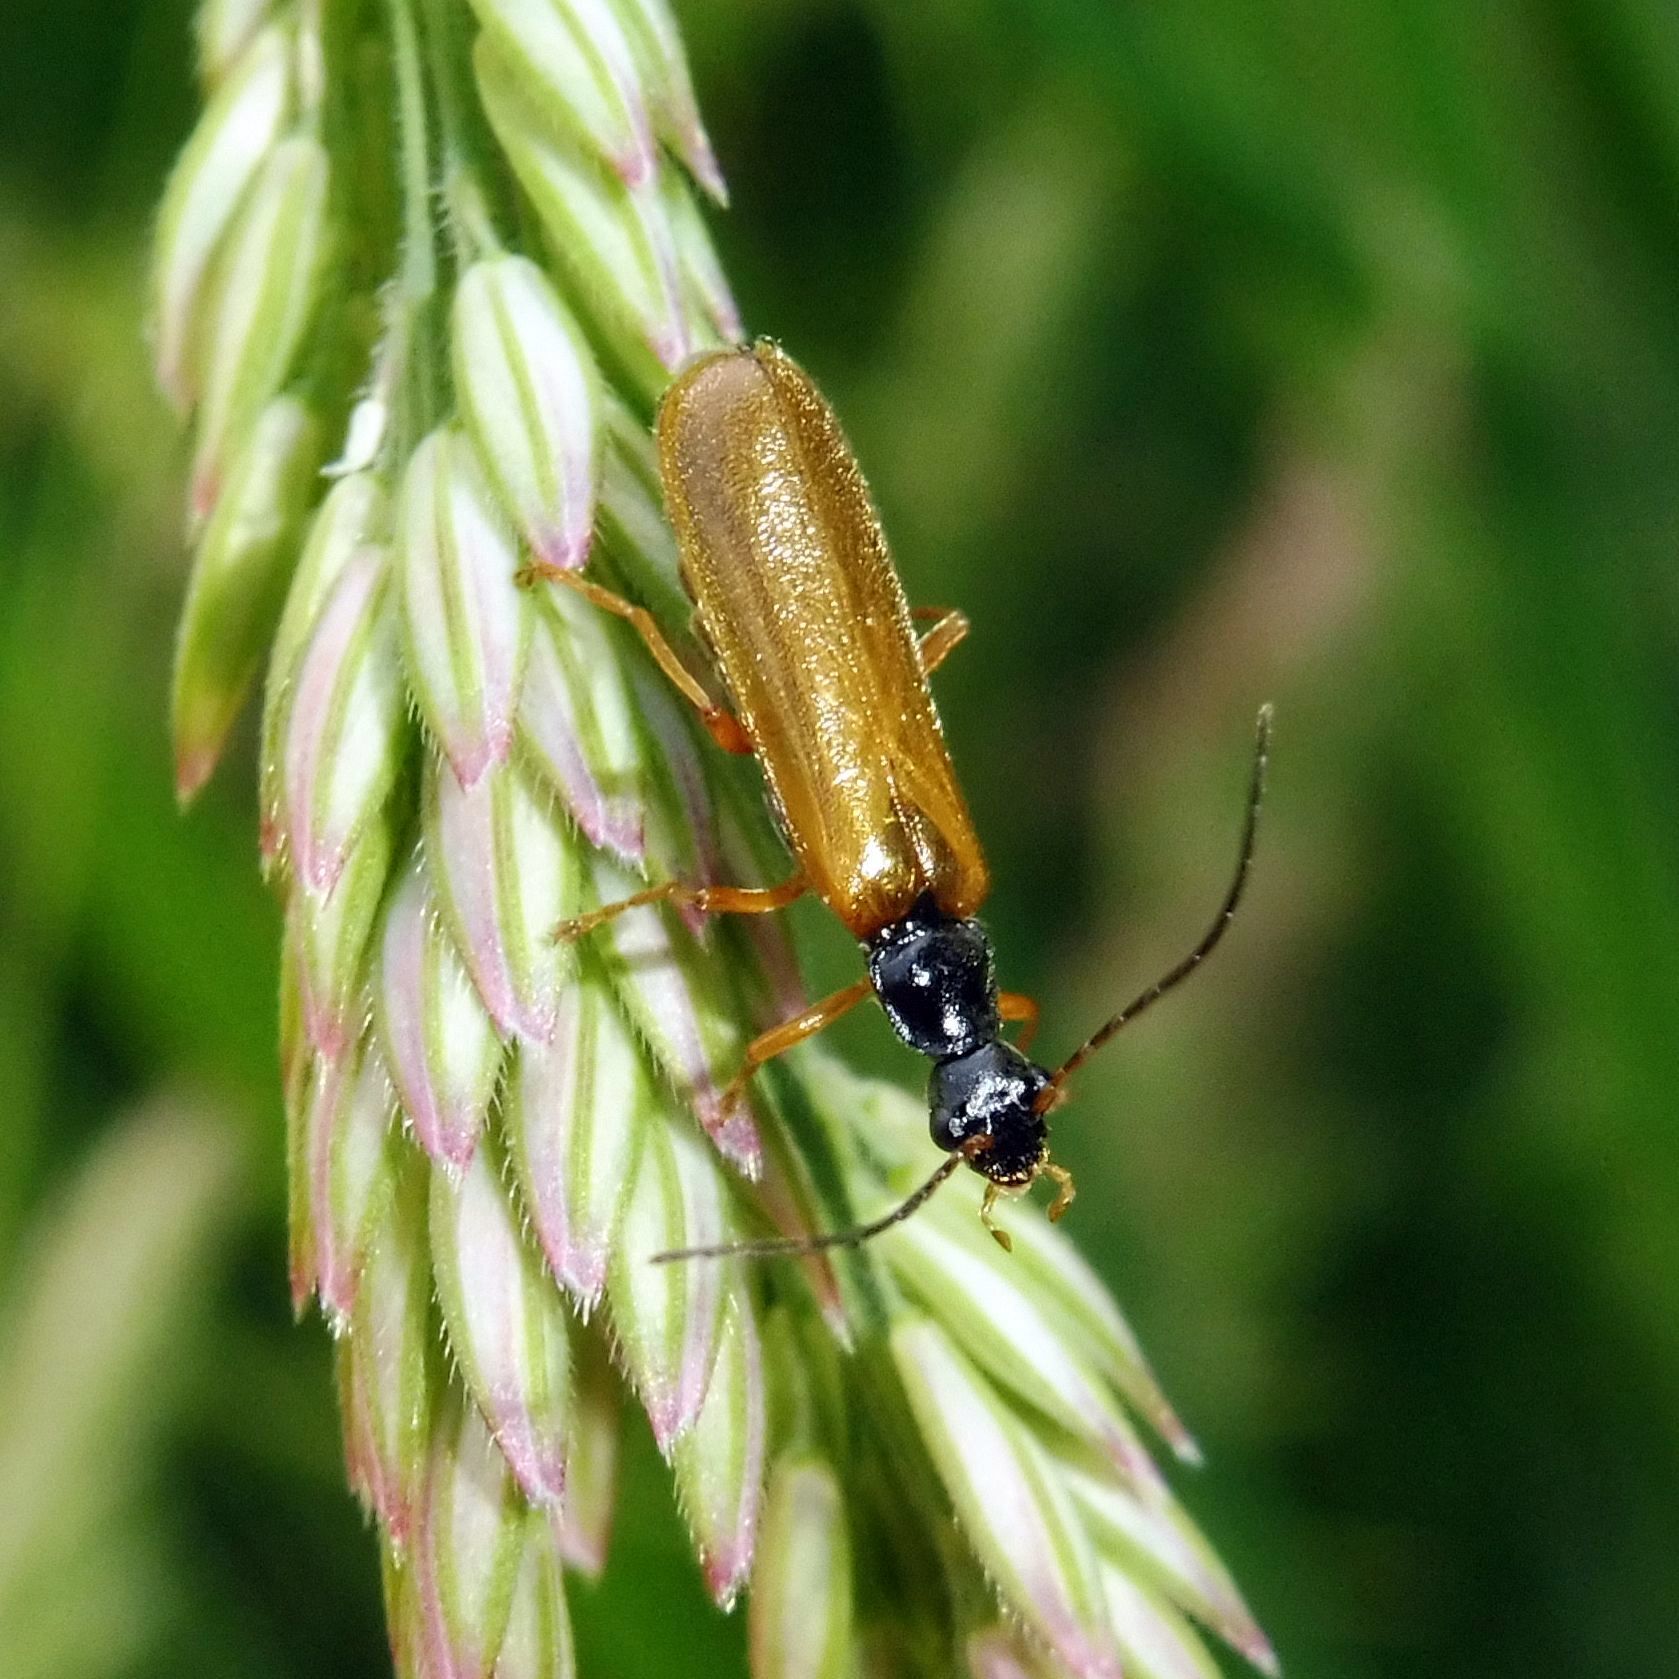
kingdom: Animalia
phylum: Arthropoda
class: Insecta
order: Coleoptera
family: Cantharidae
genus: Rhagonycha
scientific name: Rhagonycha lignosa
